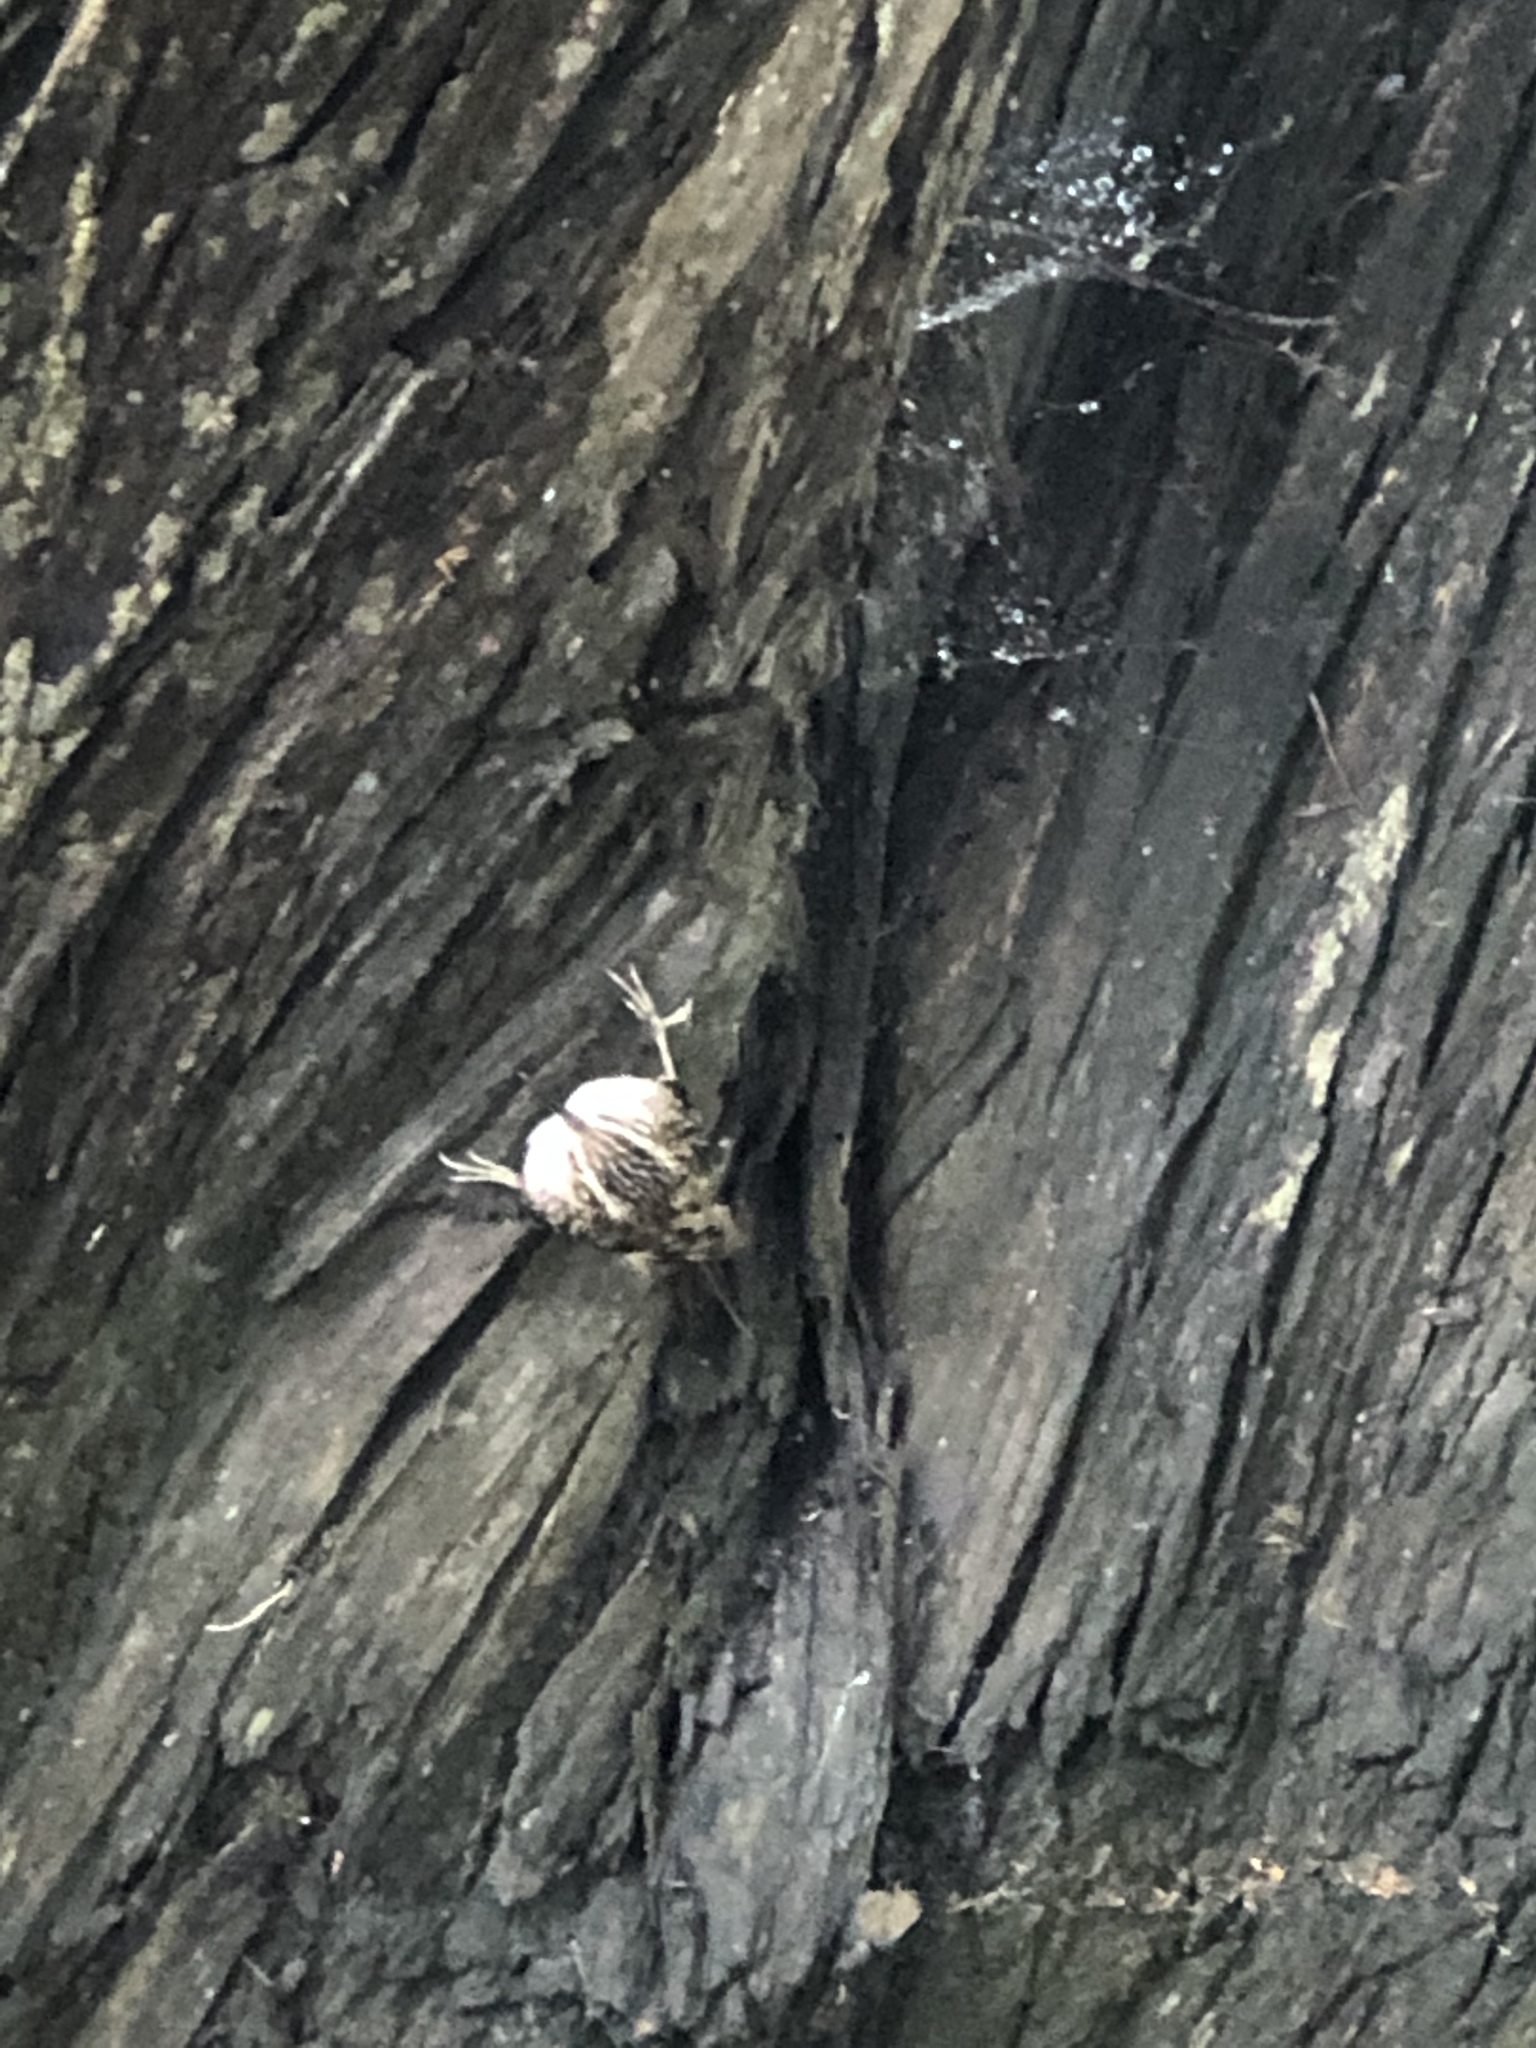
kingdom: Animalia
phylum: Chordata
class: Aves
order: Passeriformes
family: Certhiidae
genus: Certhia
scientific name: Certhia americana
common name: Brown creeper
